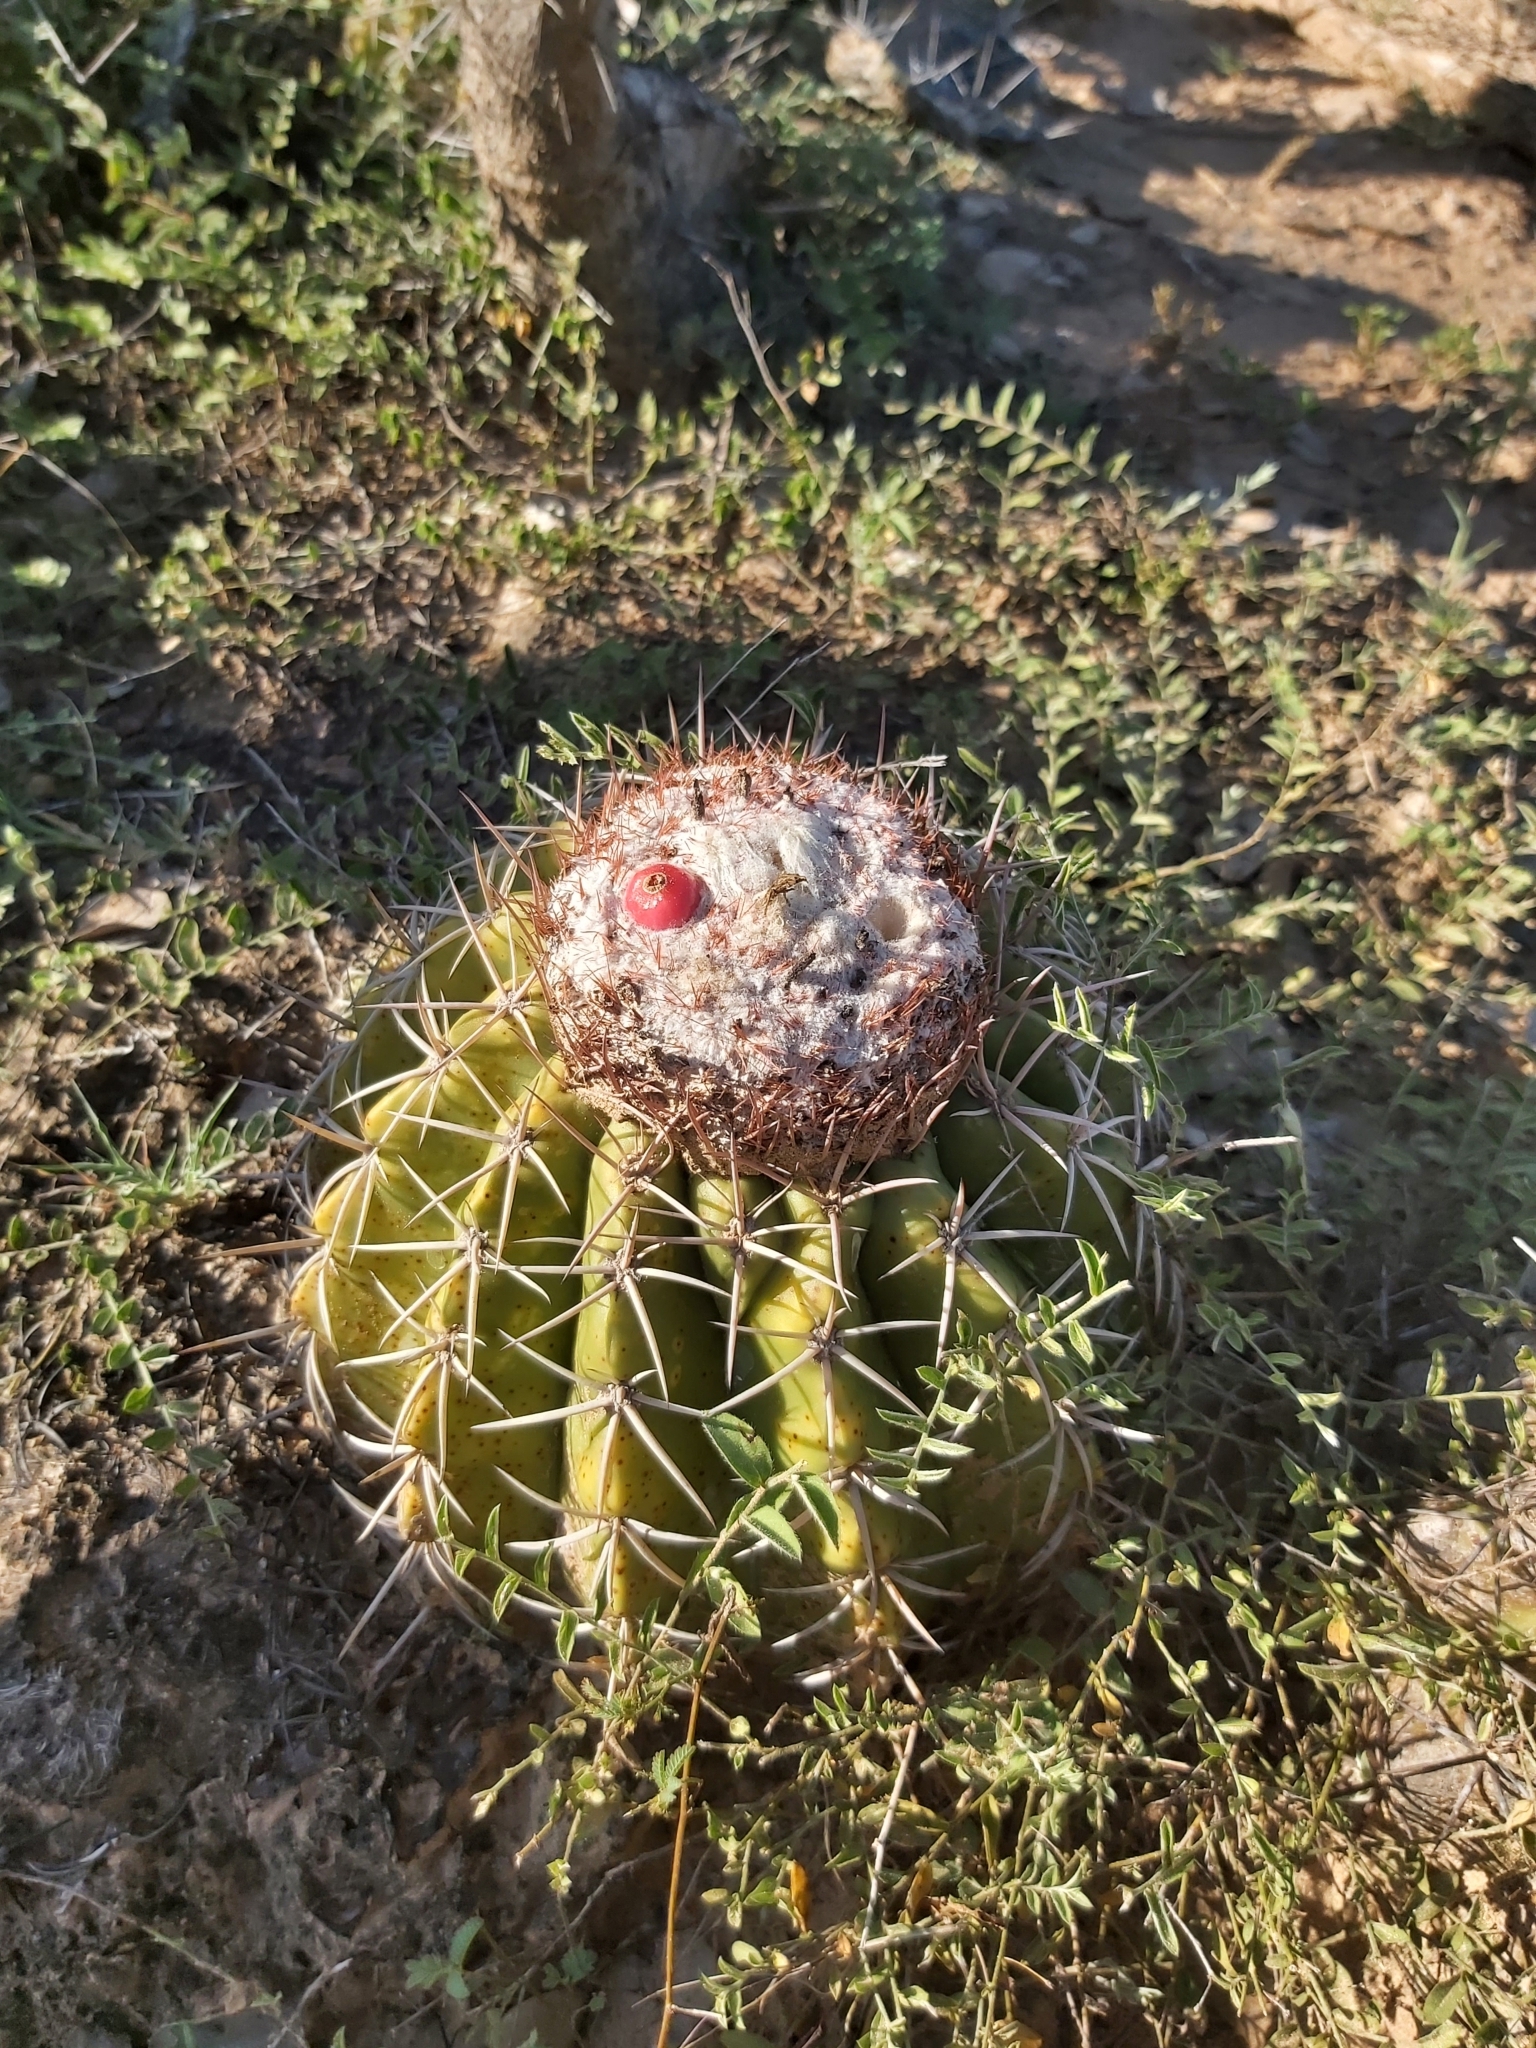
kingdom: Plantae
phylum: Tracheophyta
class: Magnoliopsida
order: Caryophyllales
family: Cactaceae
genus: Melocactus
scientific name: Melocactus curvispinus
